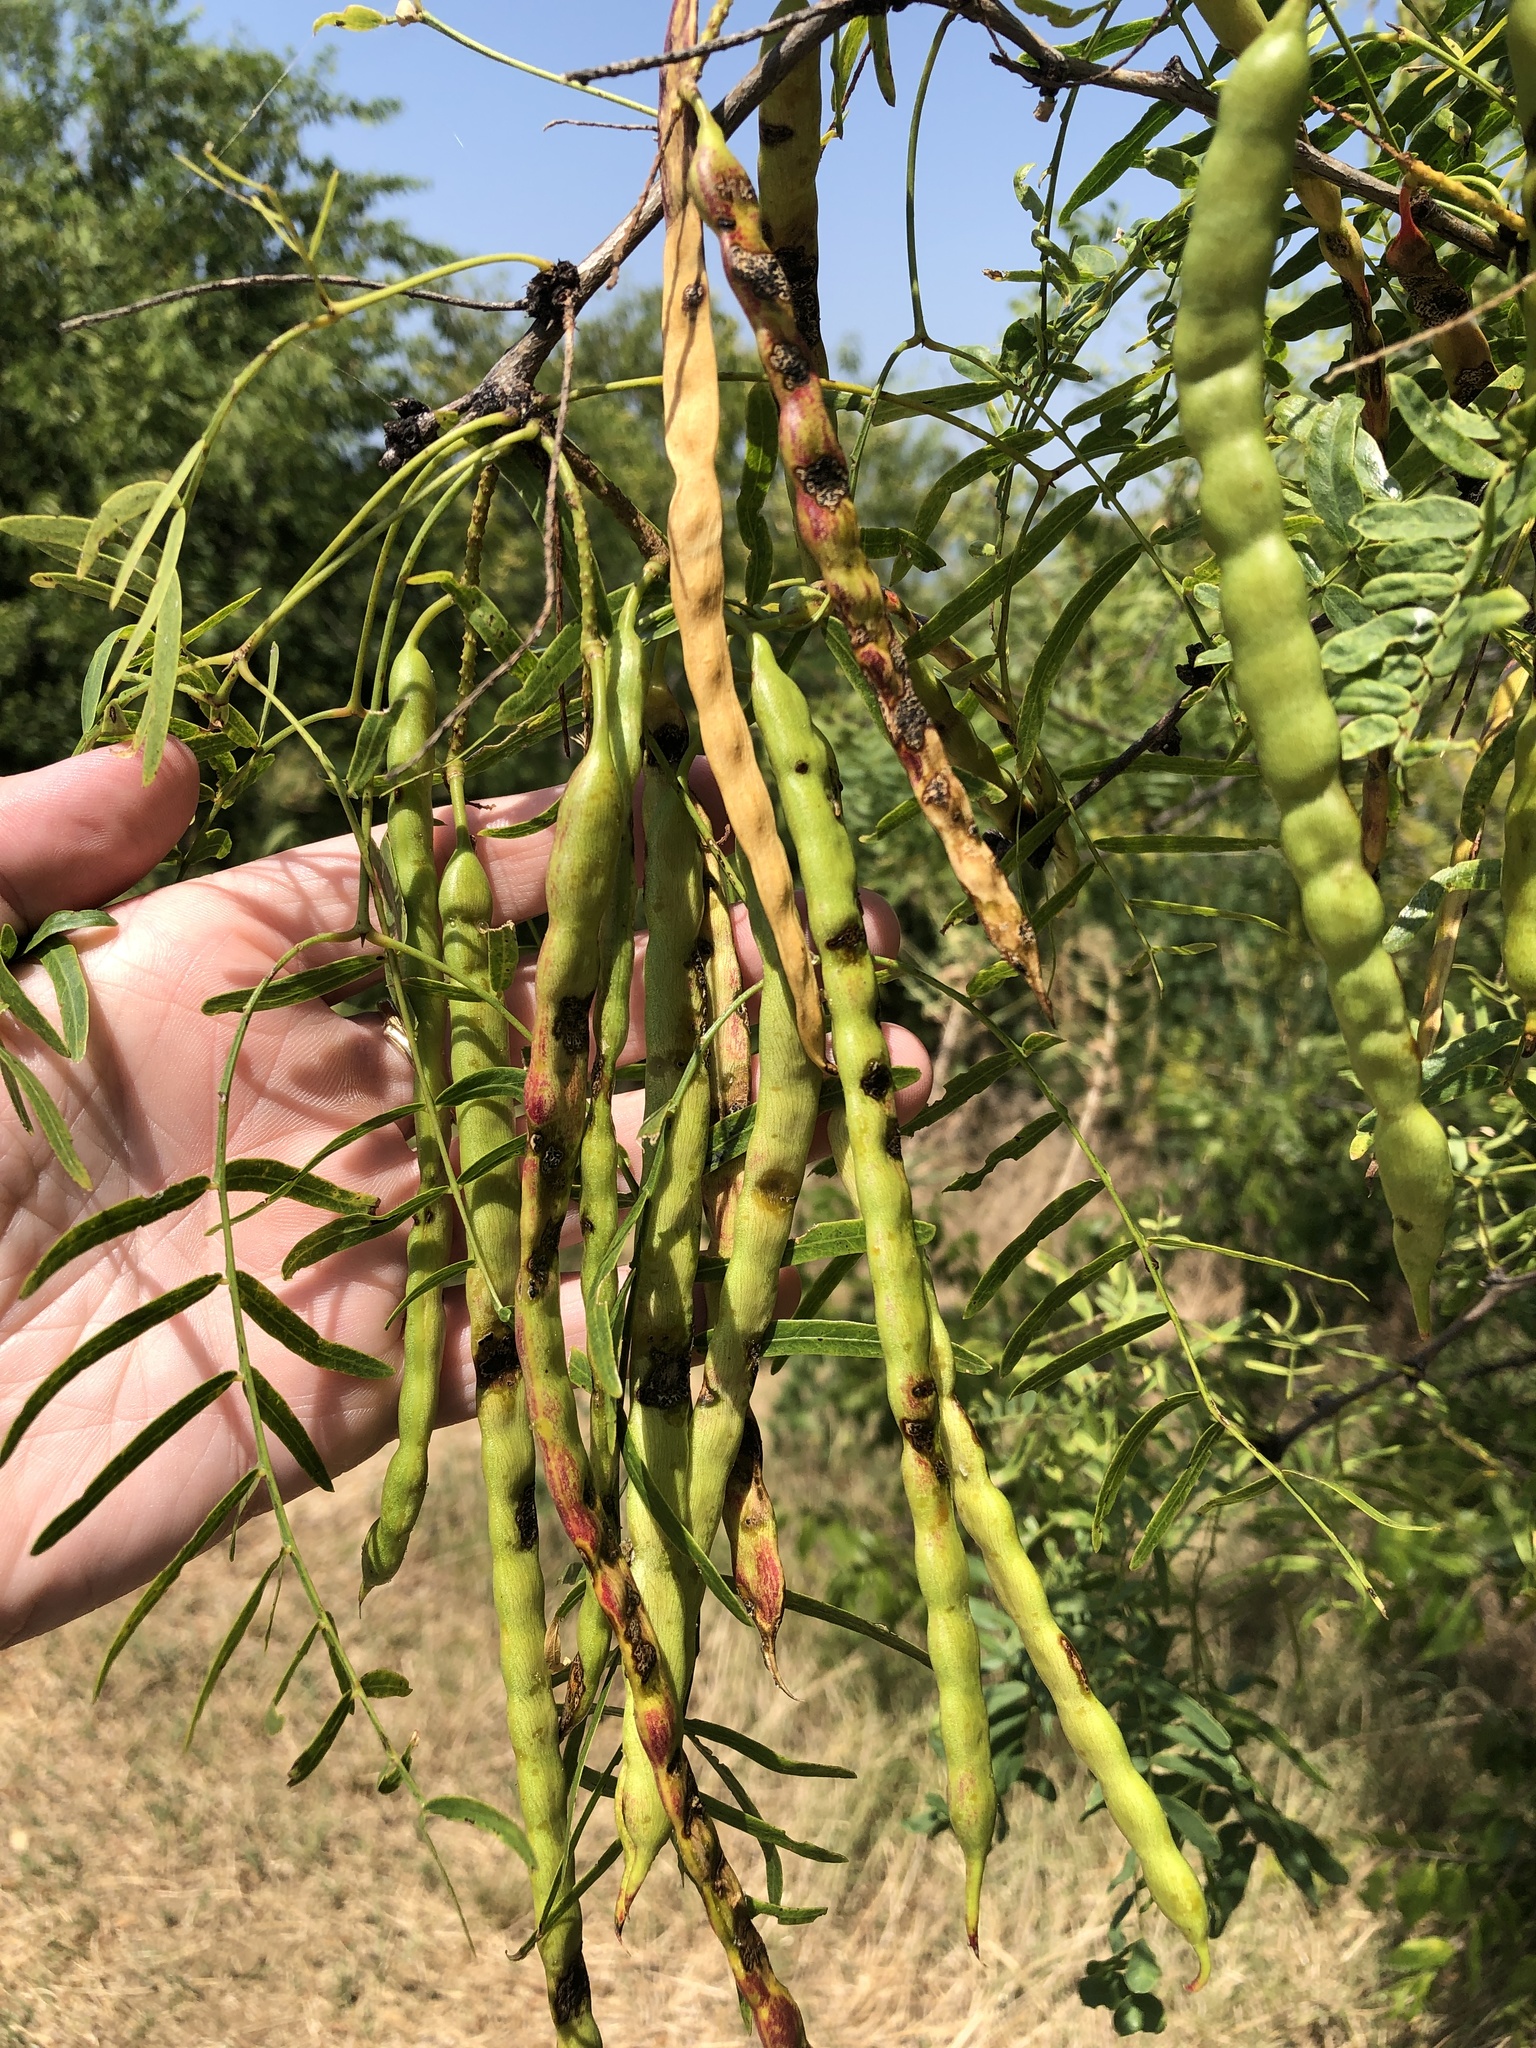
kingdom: Plantae
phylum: Tracheophyta
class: Magnoliopsida
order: Fabales
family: Fabaceae
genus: Prosopis
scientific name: Prosopis glandulosa
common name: Honey mesquite
